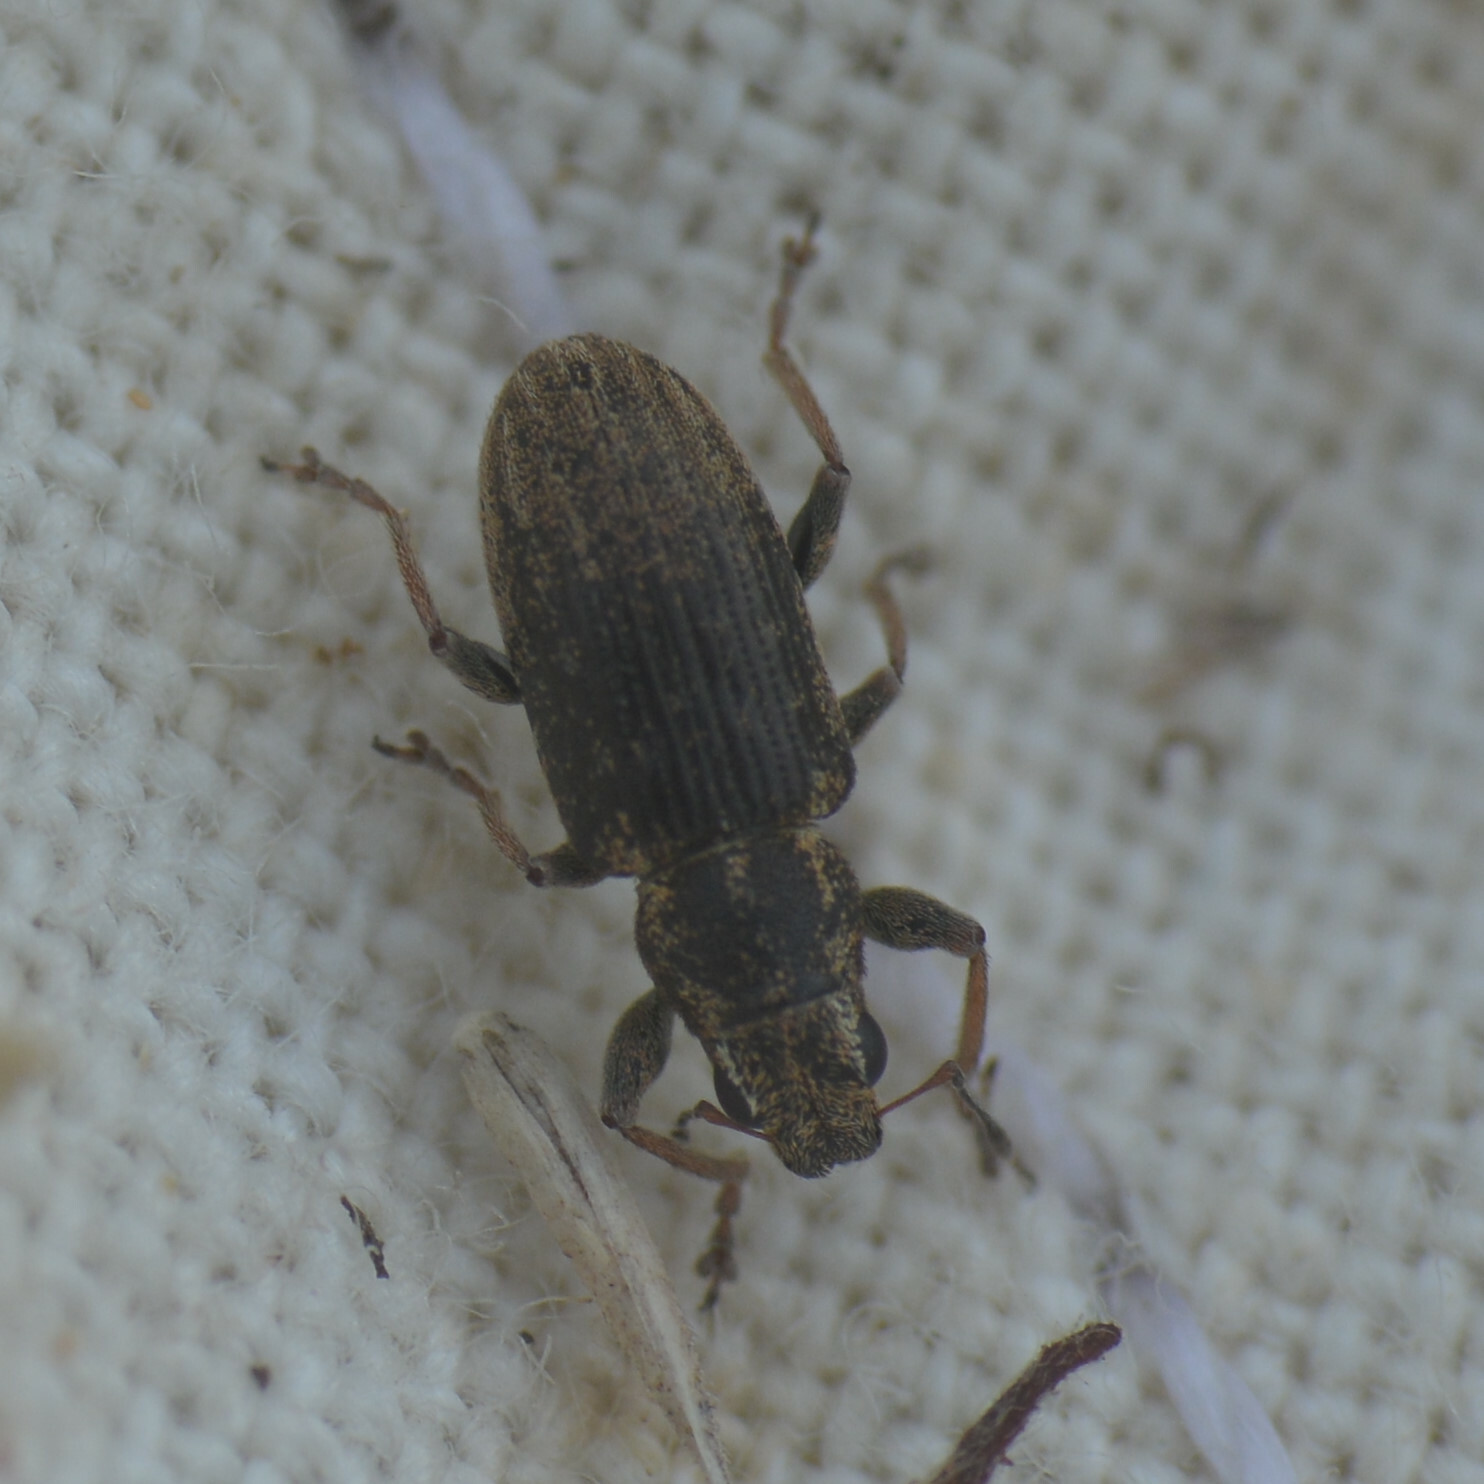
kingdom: Animalia
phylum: Arthropoda
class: Insecta
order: Coleoptera
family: Curculionidae
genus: Sitona
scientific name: Sitona lineatus
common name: Weevil
